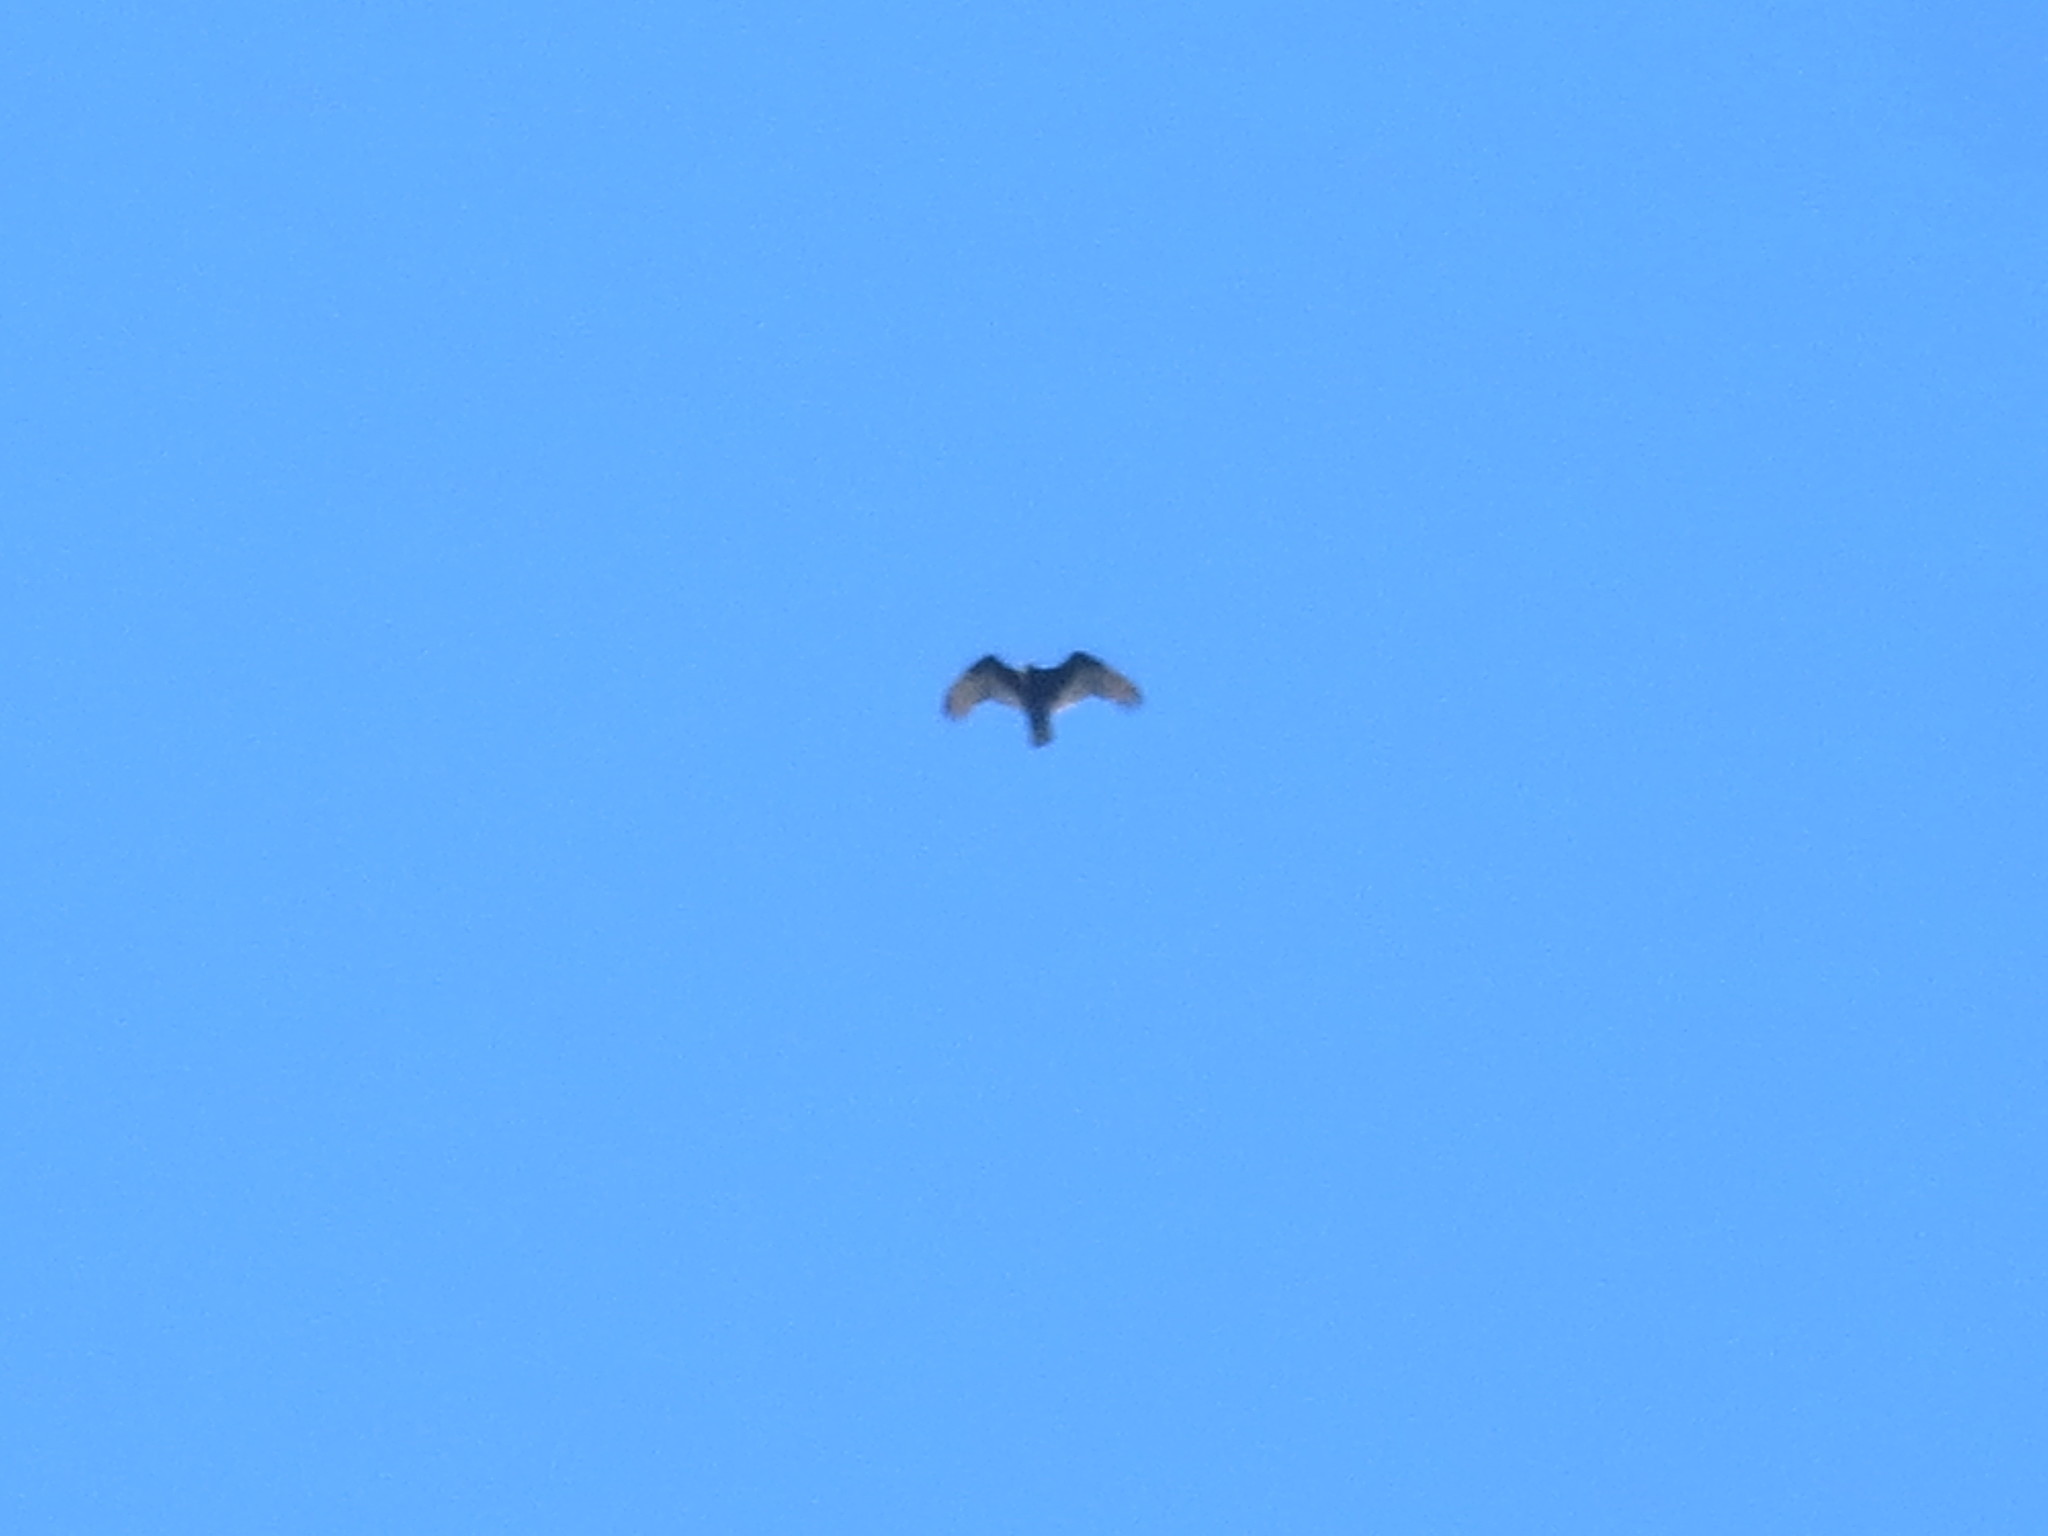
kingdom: Animalia
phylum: Chordata
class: Aves
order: Accipitriformes
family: Cathartidae
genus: Cathartes
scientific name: Cathartes aura
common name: Turkey vulture
